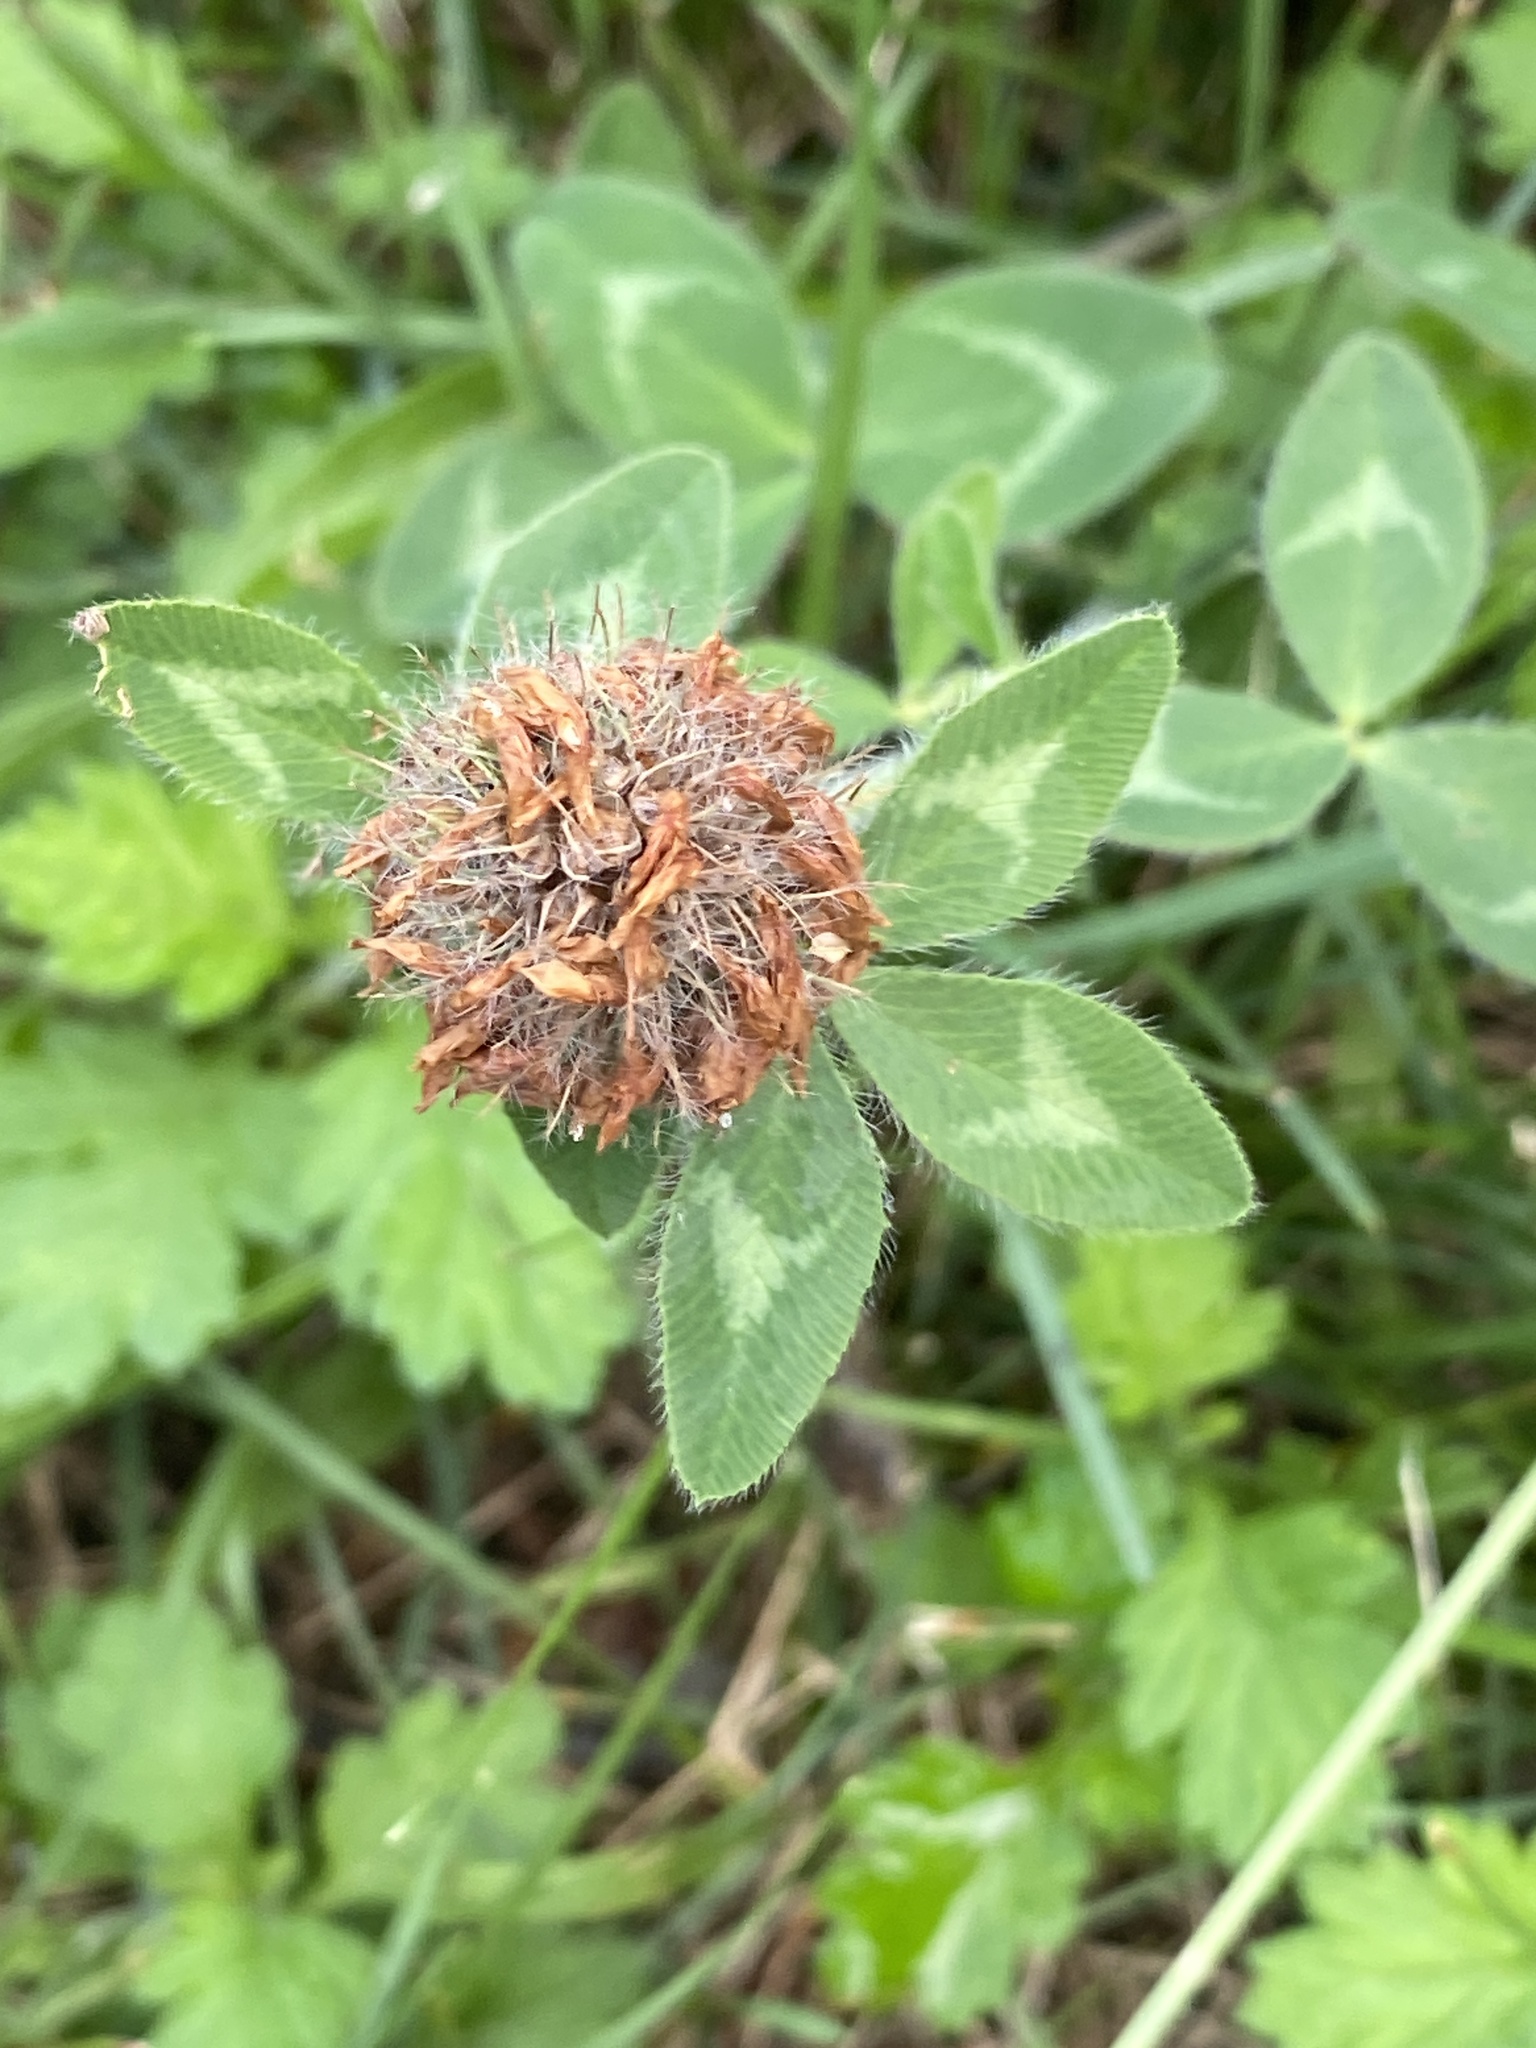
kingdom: Plantae
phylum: Tracheophyta
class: Magnoliopsida
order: Fabales
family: Fabaceae
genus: Trifolium
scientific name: Trifolium pratense
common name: Red clover
